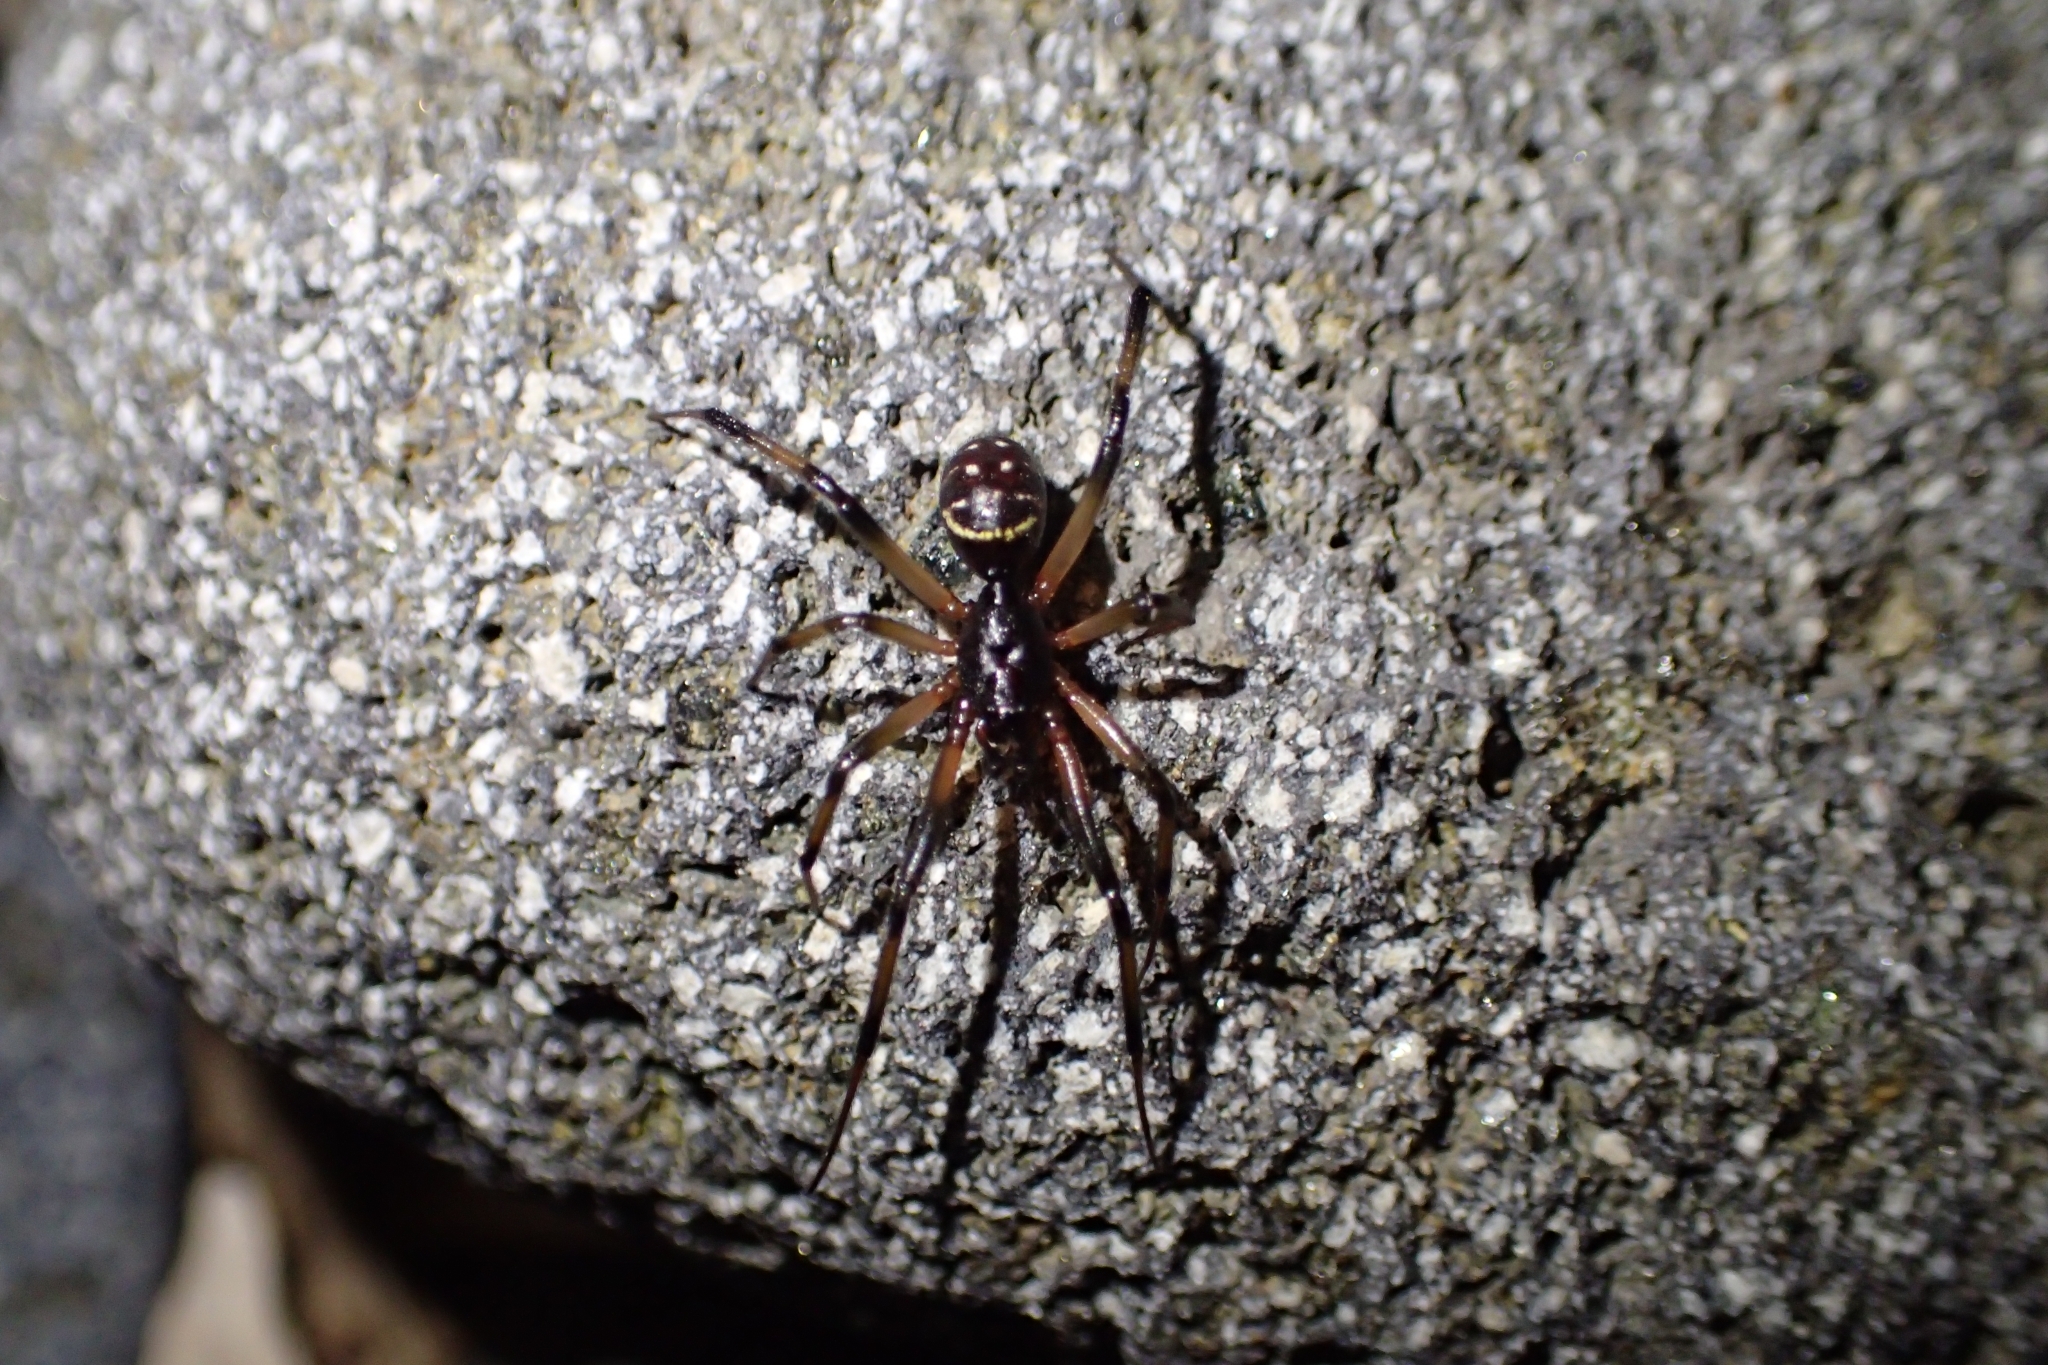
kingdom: Animalia
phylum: Arthropoda
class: Arachnida
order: Araneae
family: Theridiidae
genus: Steatoda
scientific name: Steatoda capensis
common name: Cobweb weaver
